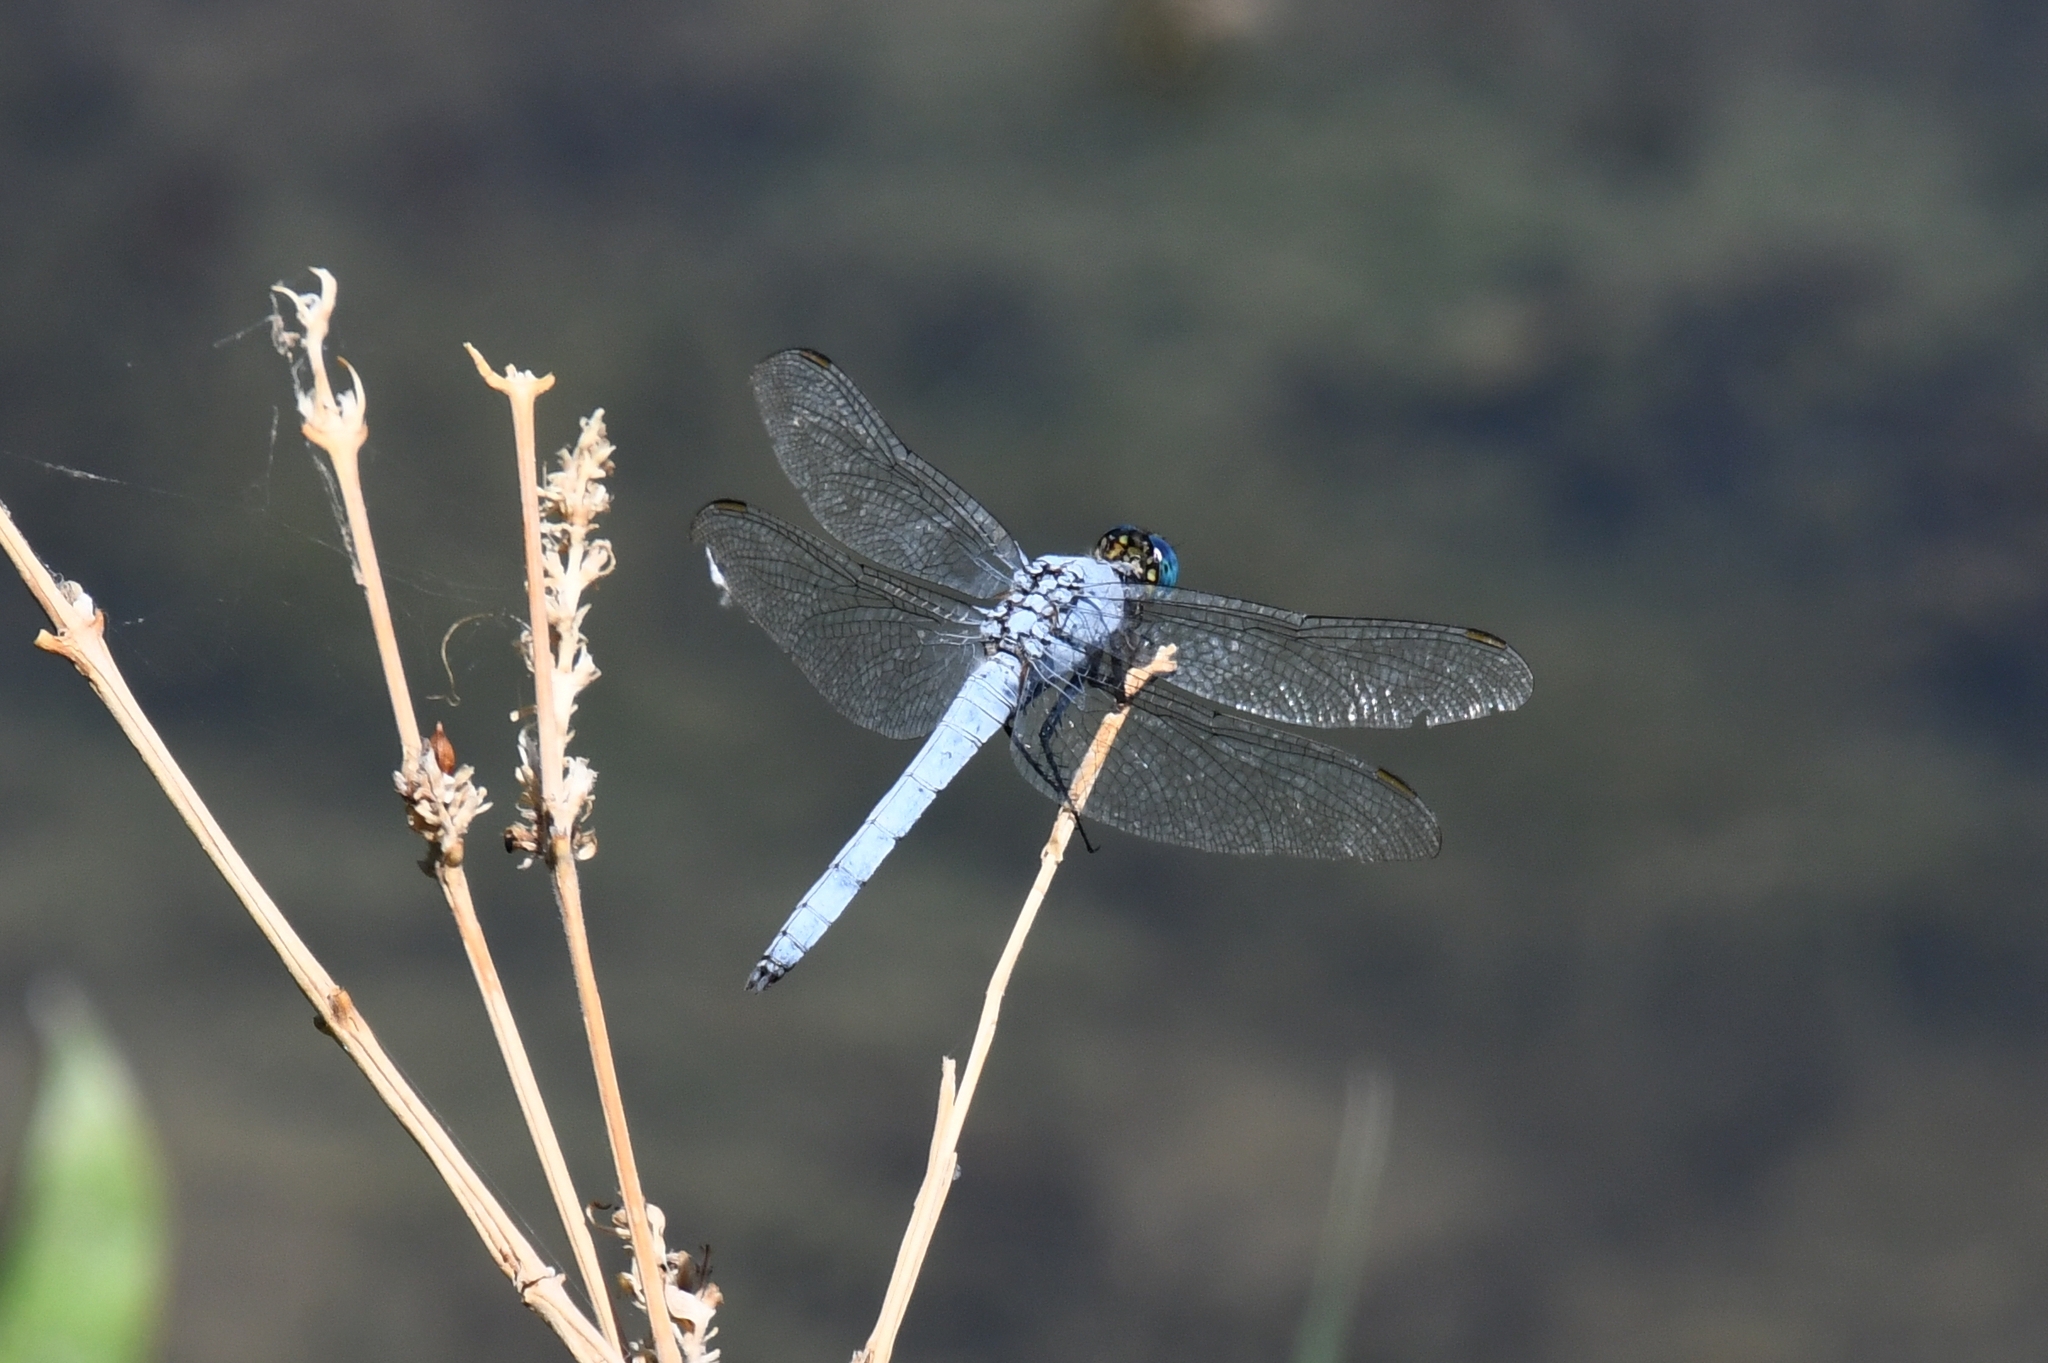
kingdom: Animalia
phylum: Arthropoda
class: Insecta
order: Odonata
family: Libellulidae
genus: Erythemis
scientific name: Erythemis collocata
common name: Western pondhawk
